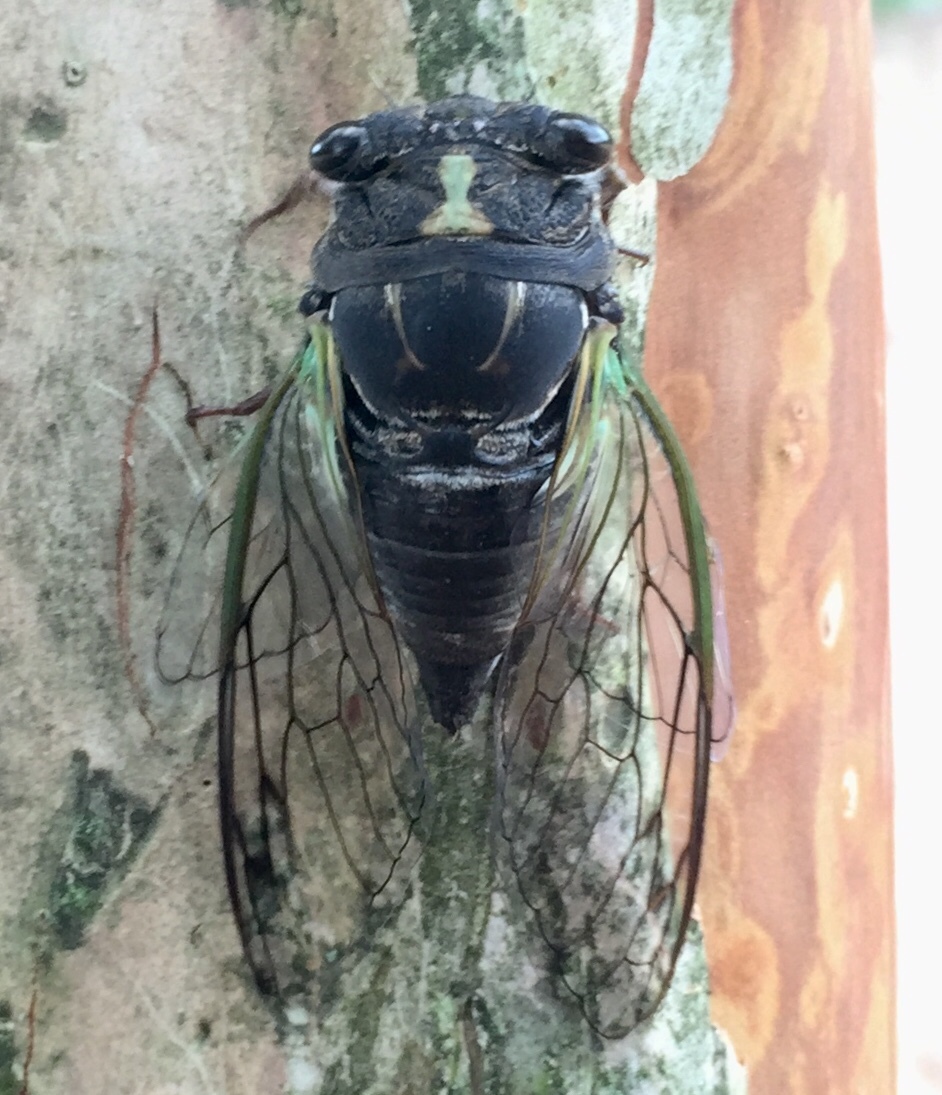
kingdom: Animalia
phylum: Arthropoda
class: Insecta
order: Hemiptera
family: Cicadidae
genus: Neotibicen
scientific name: Neotibicen lyricen
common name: Lyric cicada
